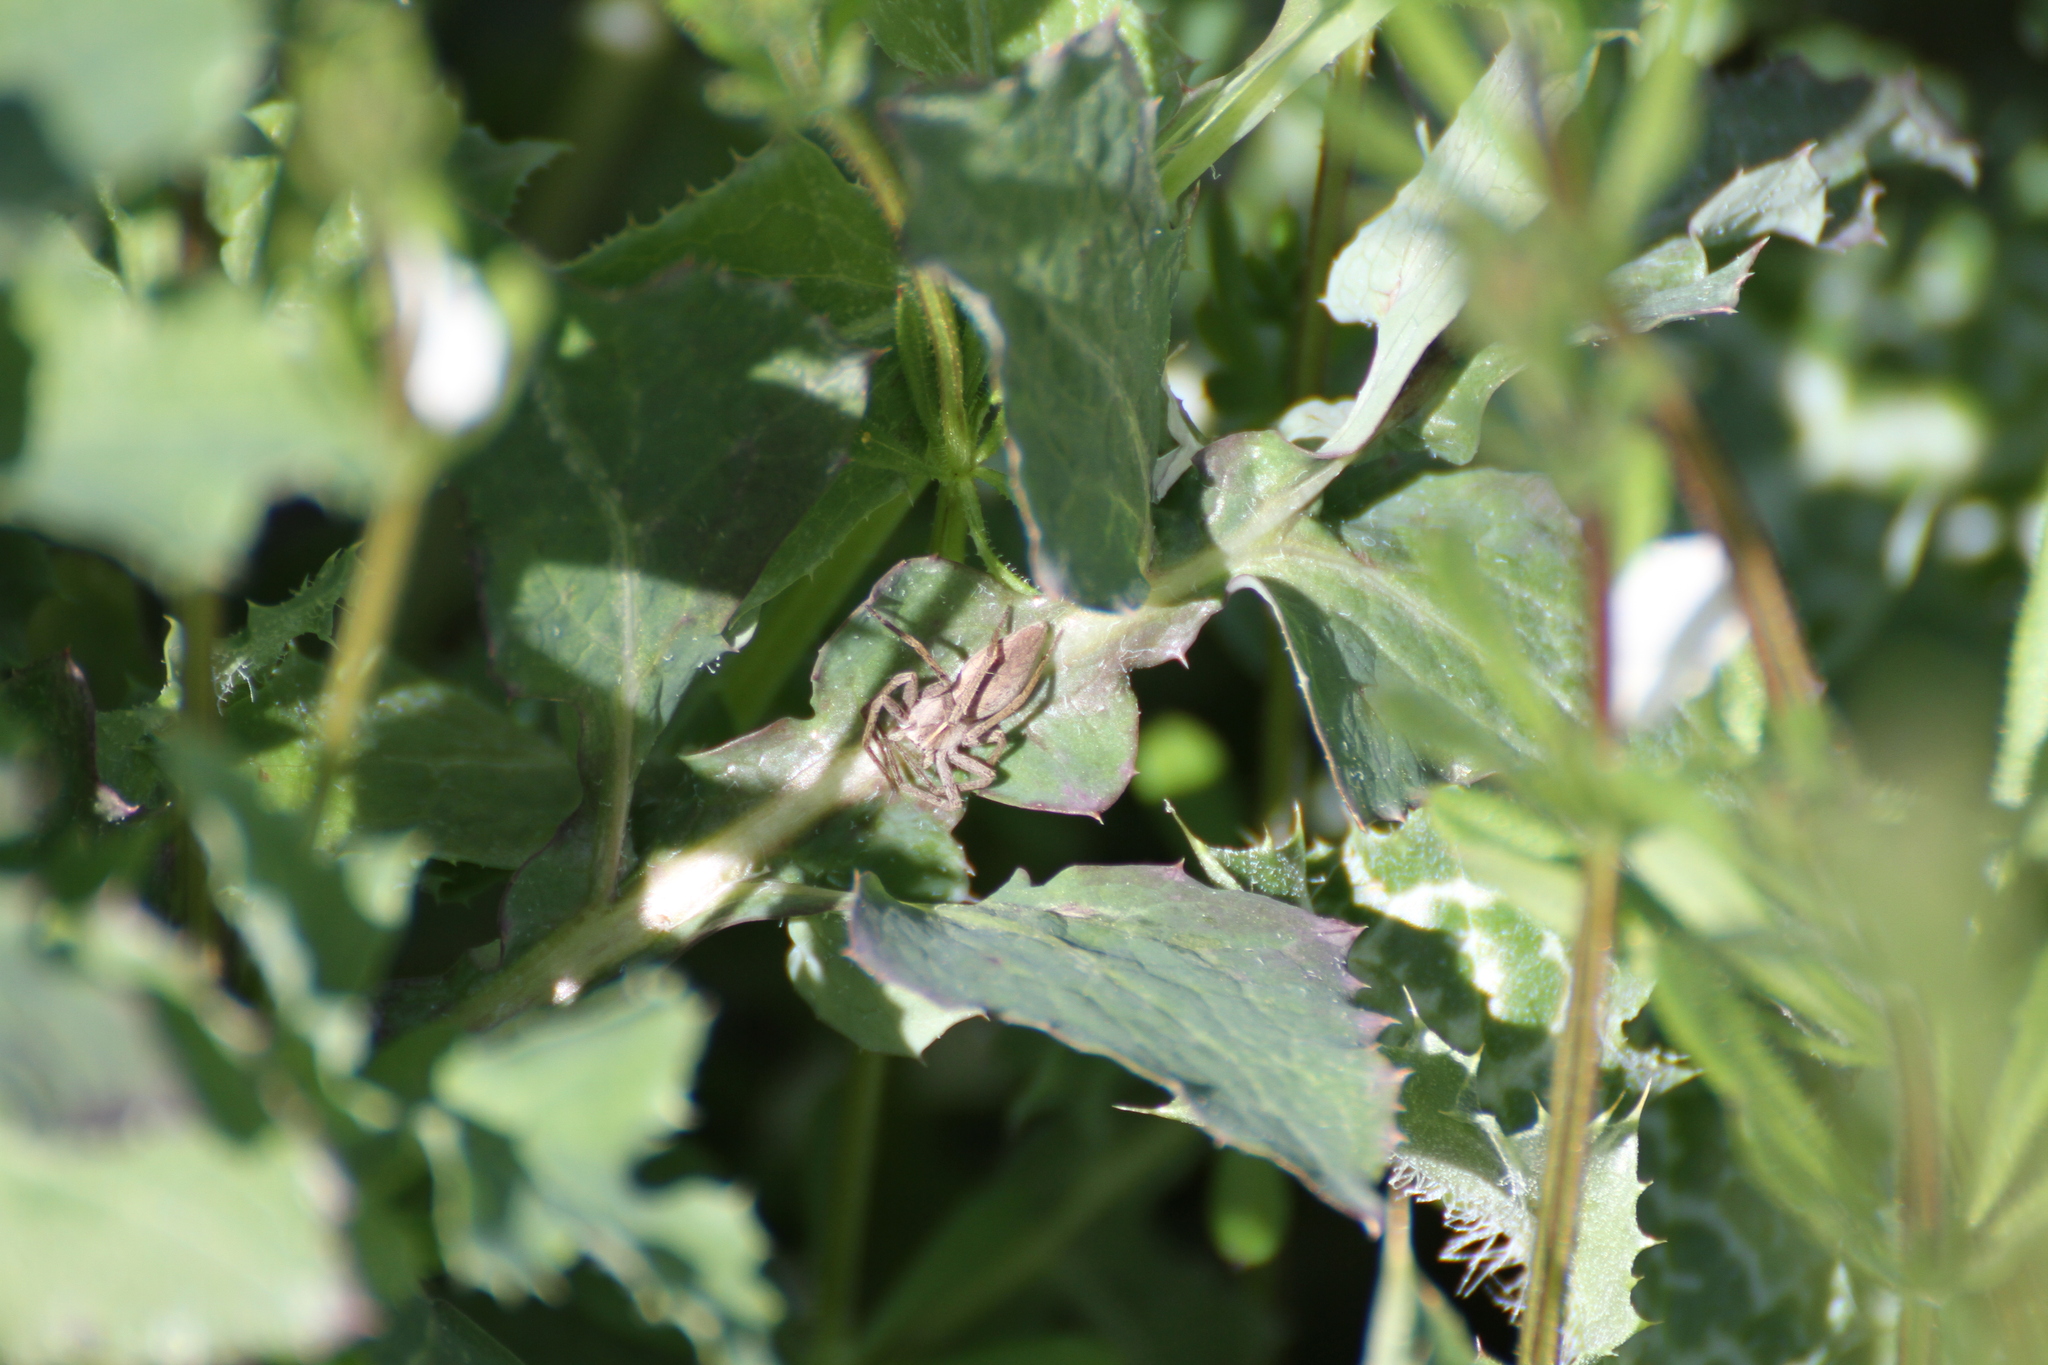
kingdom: Animalia
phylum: Arthropoda
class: Arachnida
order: Araneae
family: Pisauridae
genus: Pisaura
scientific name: Pisaura
